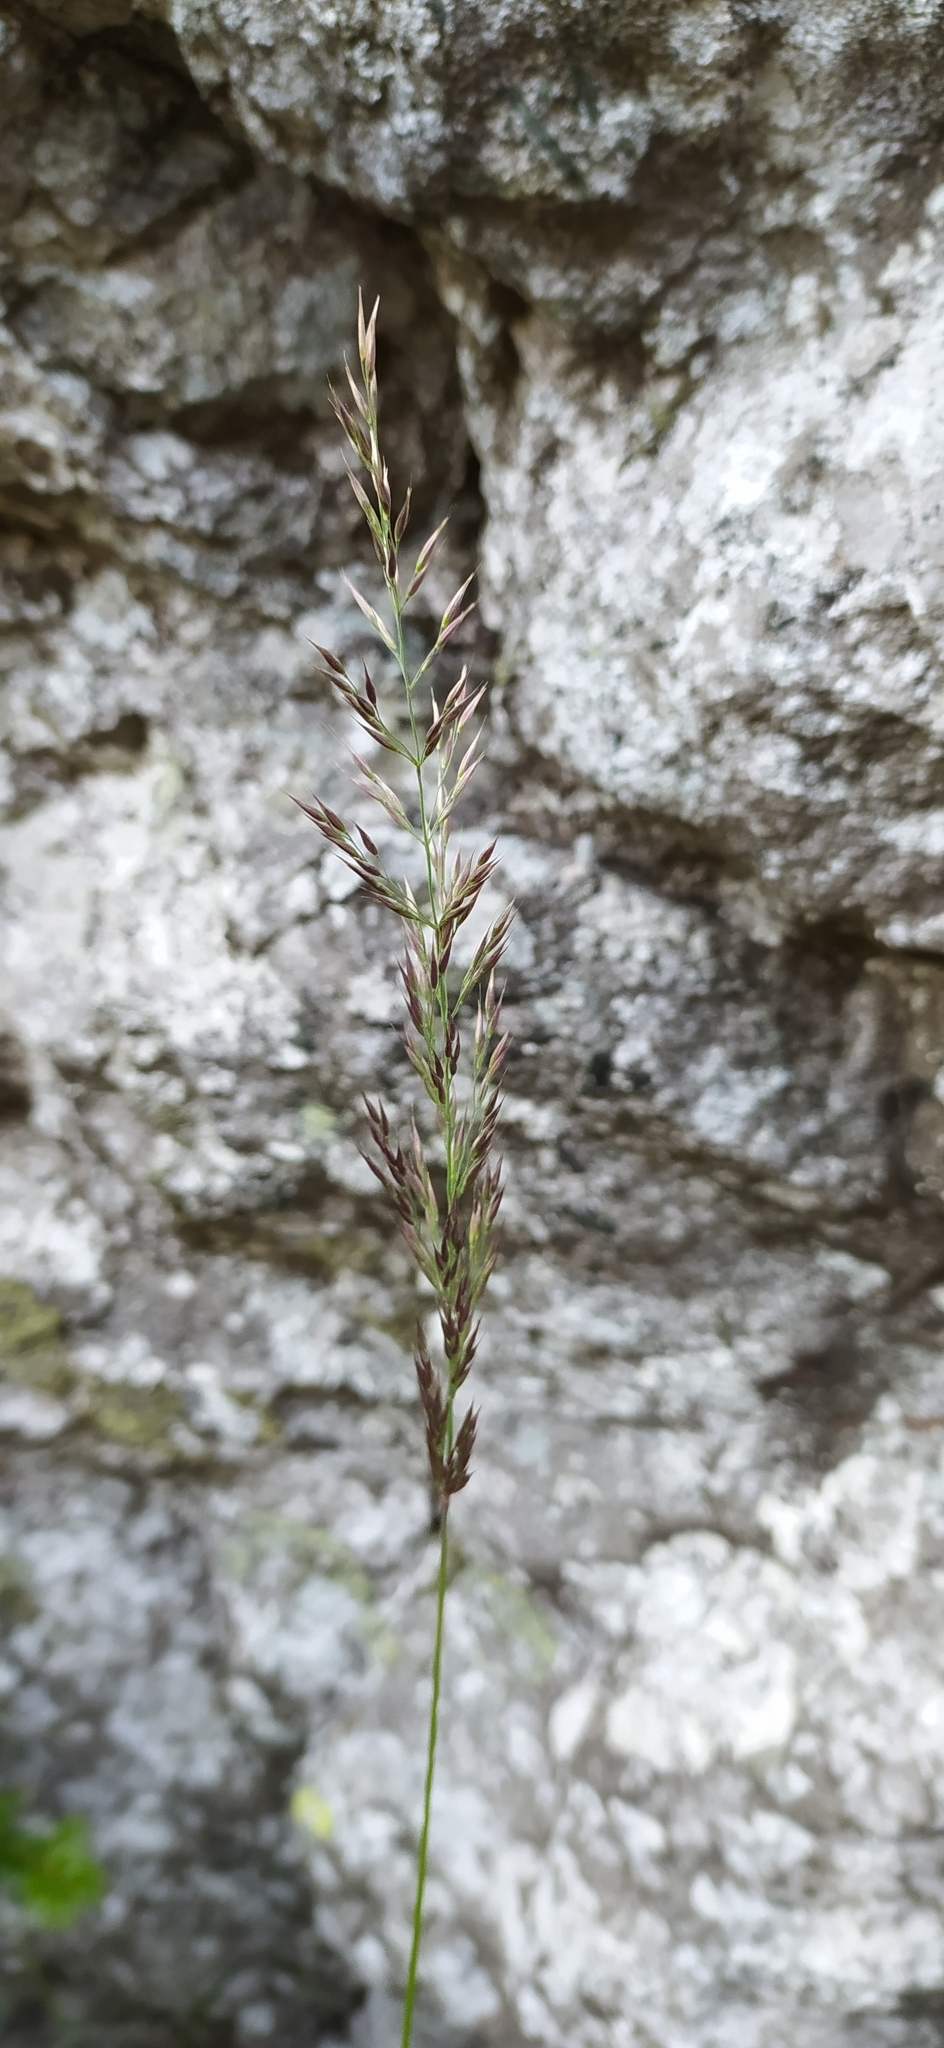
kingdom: Plantae
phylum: Tracheophyta
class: Liliopsida
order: Poales
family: Poaceae
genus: Calamagrostis
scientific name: Calamagrostis lapponica
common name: Lapland reedgrass
